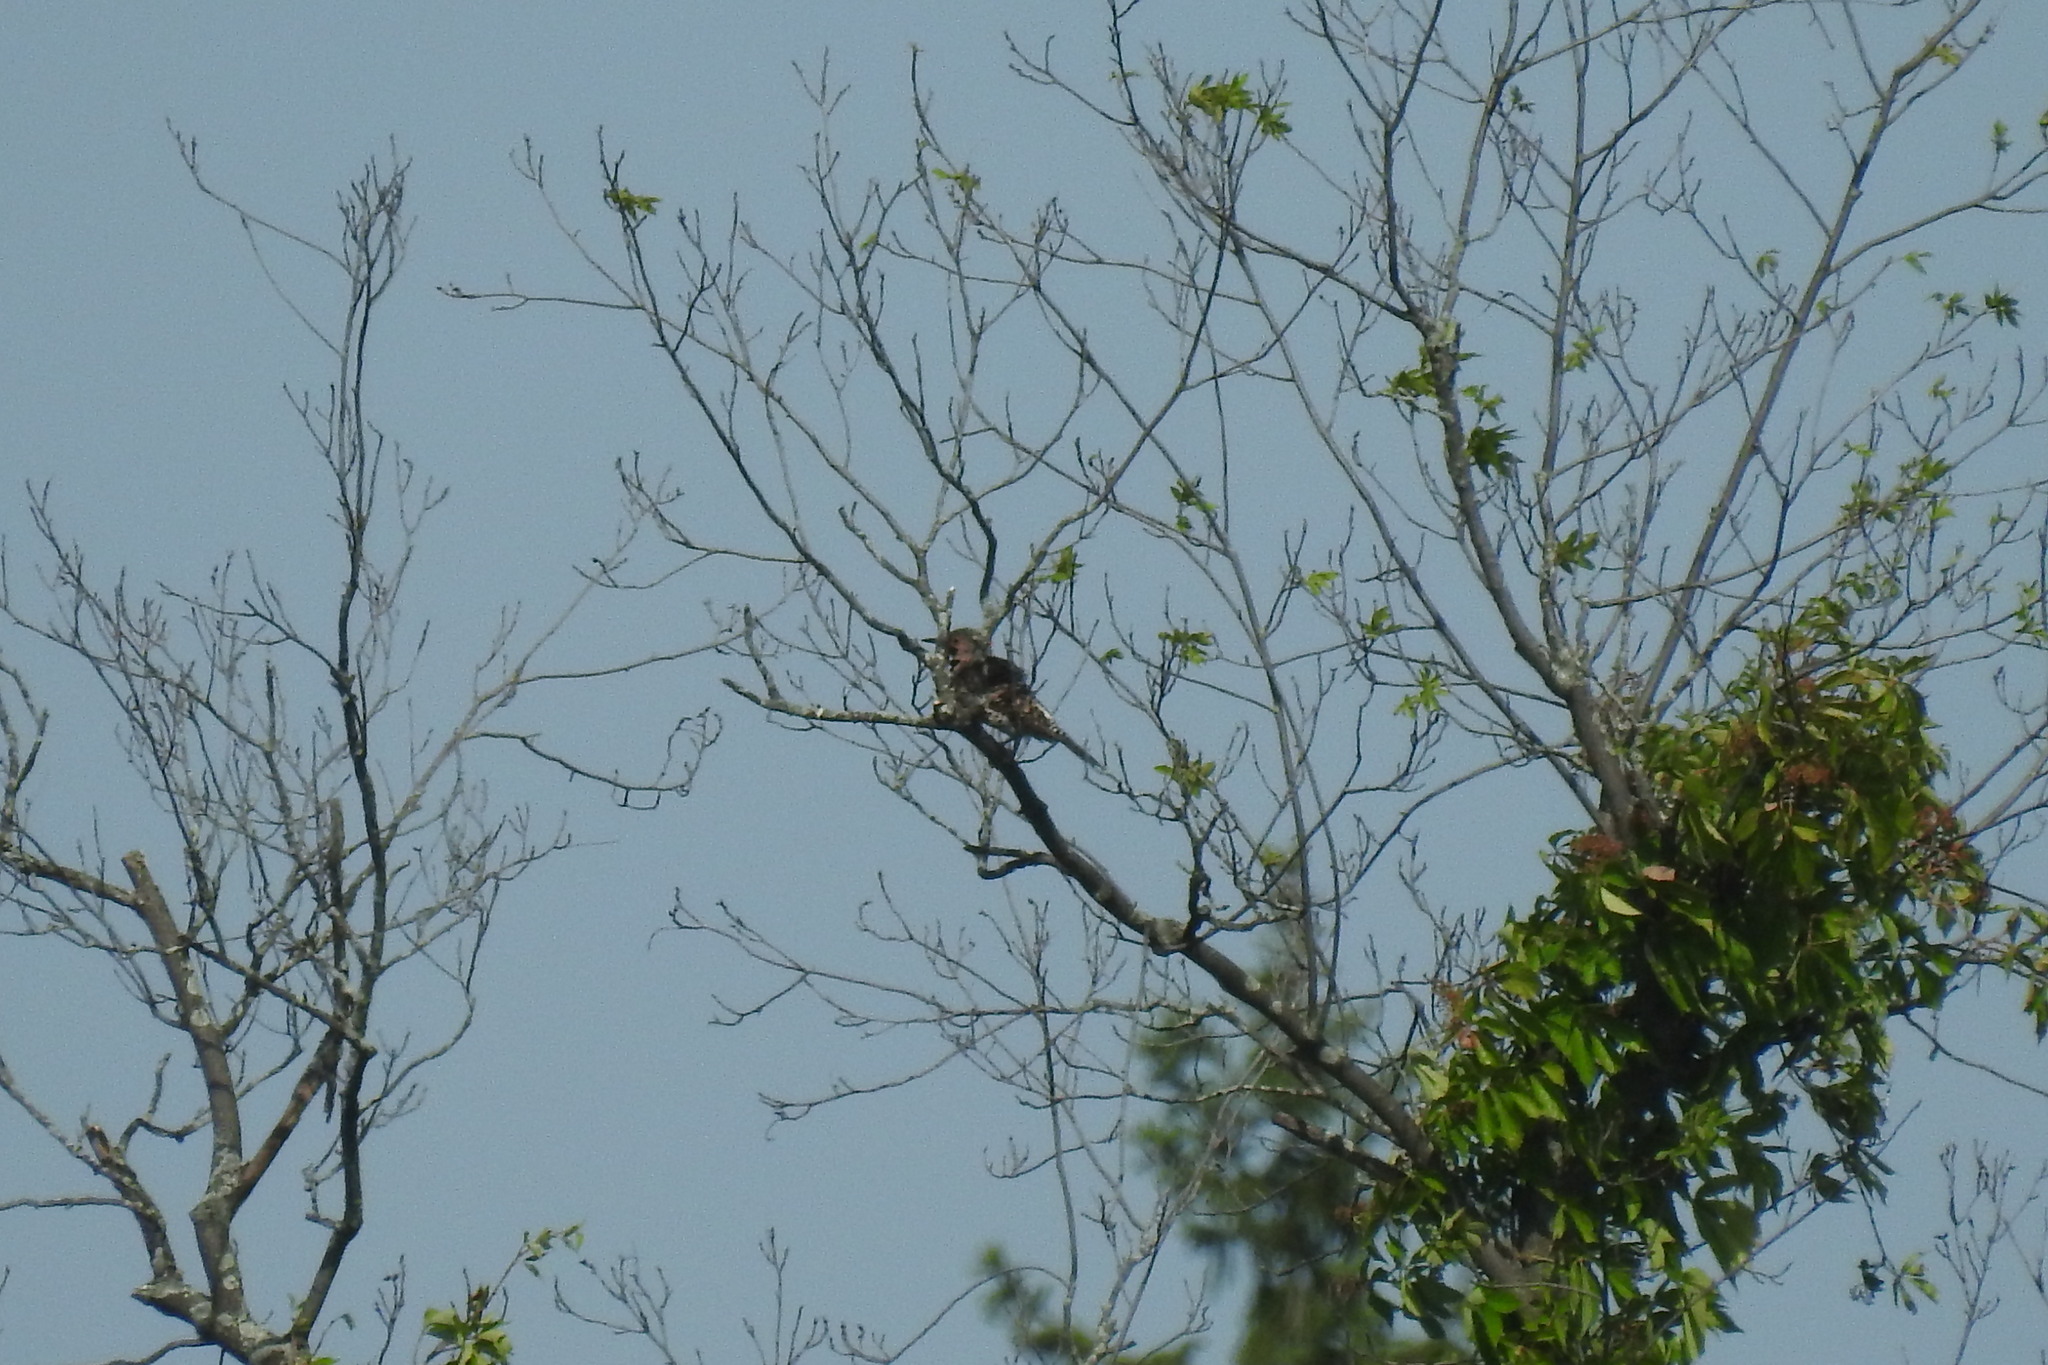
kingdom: Animalia
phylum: Chordata
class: Aves
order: Piciformes
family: Picidae
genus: Colaptes
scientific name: Colaptes auratus
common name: Northern flicker
